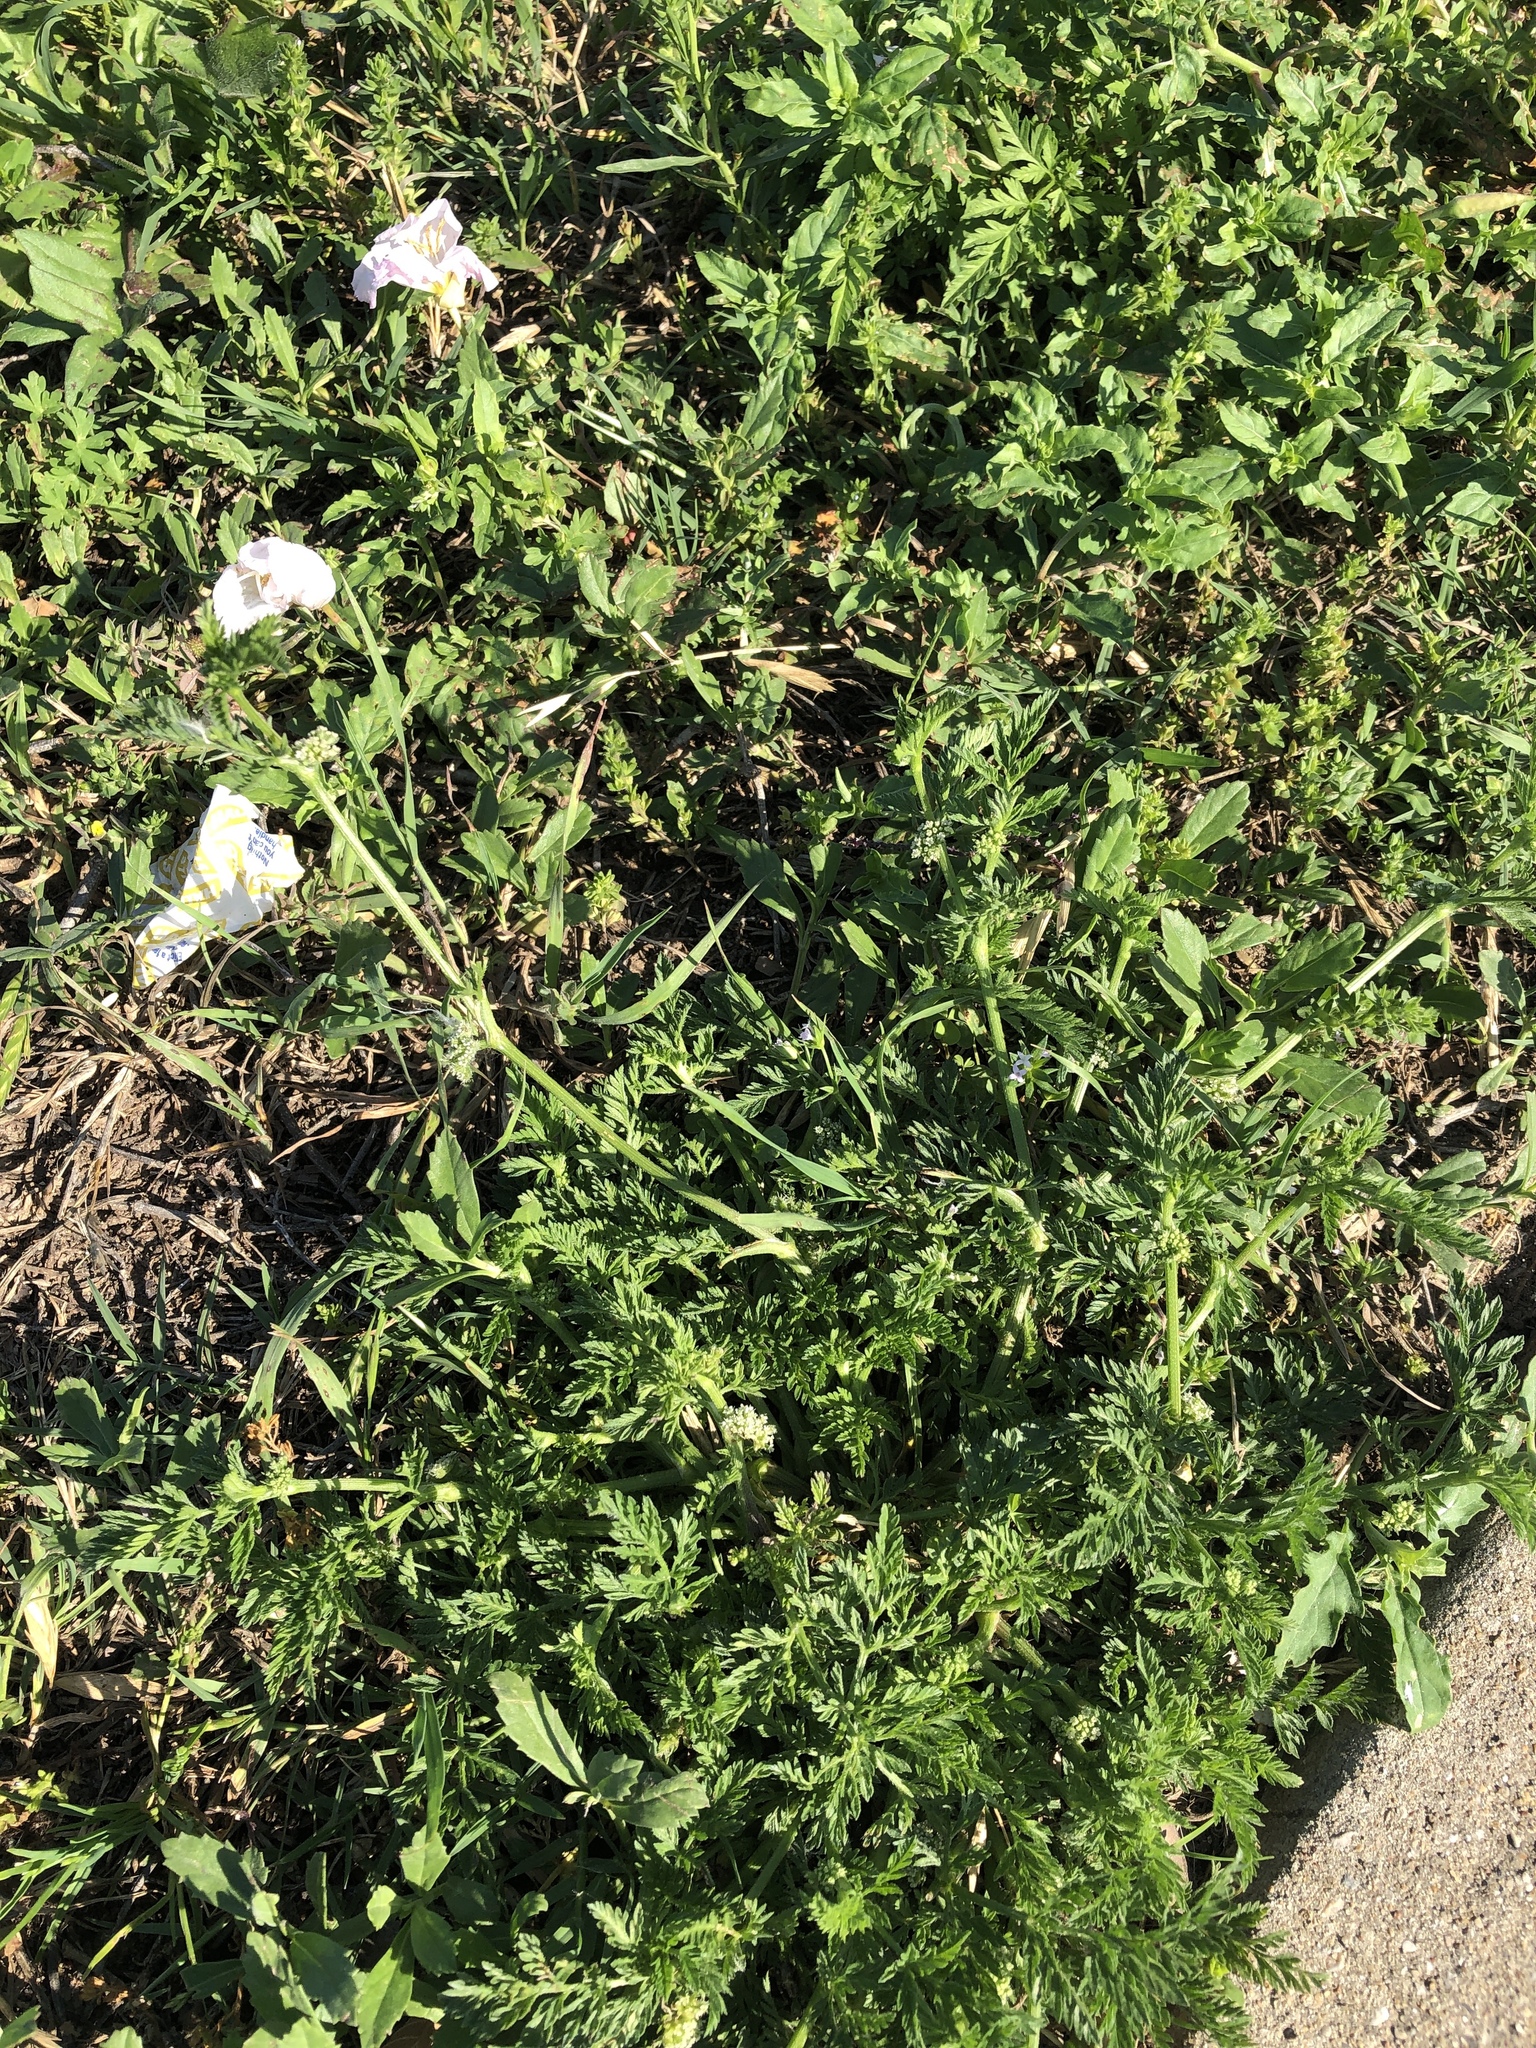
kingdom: Plantae
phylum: Tracheophyta
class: Magnoliopsida
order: Apiales
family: Apiaceae
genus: Torilis
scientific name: Torilis nodosa
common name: Knotted hedge-parsley
